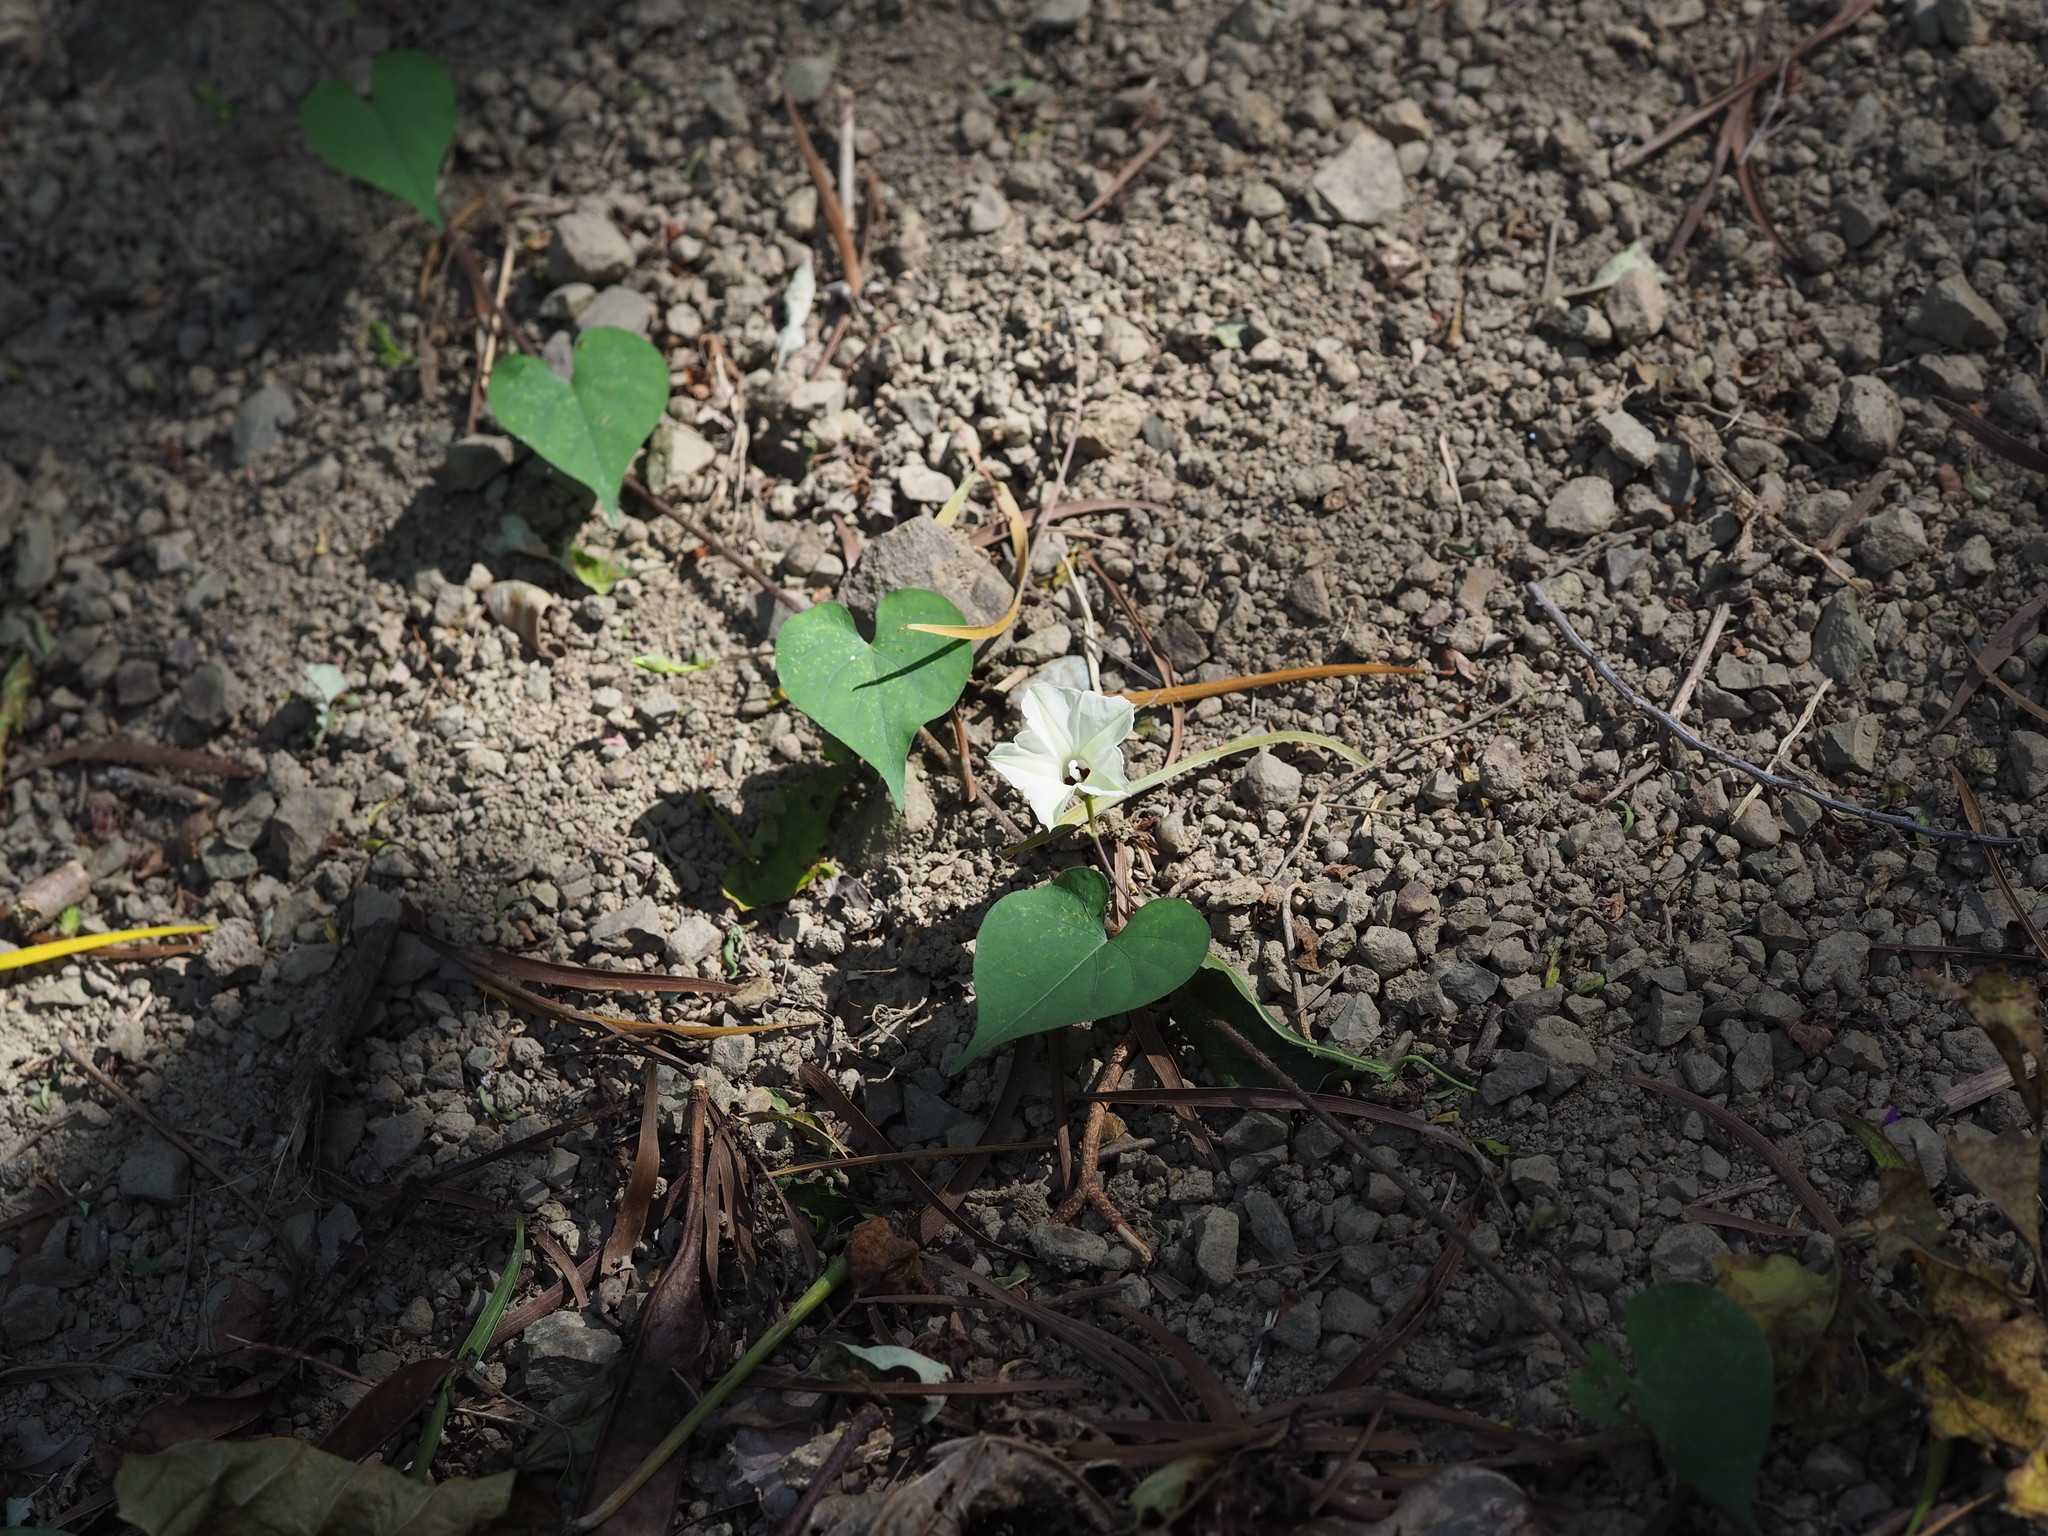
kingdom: Plantae
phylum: Tracheophyta
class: Magnoliopsida
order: Solanales
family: Convolvulaceae
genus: Ipomoea
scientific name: Ipomoea obscura
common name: Obscure morning-glory
